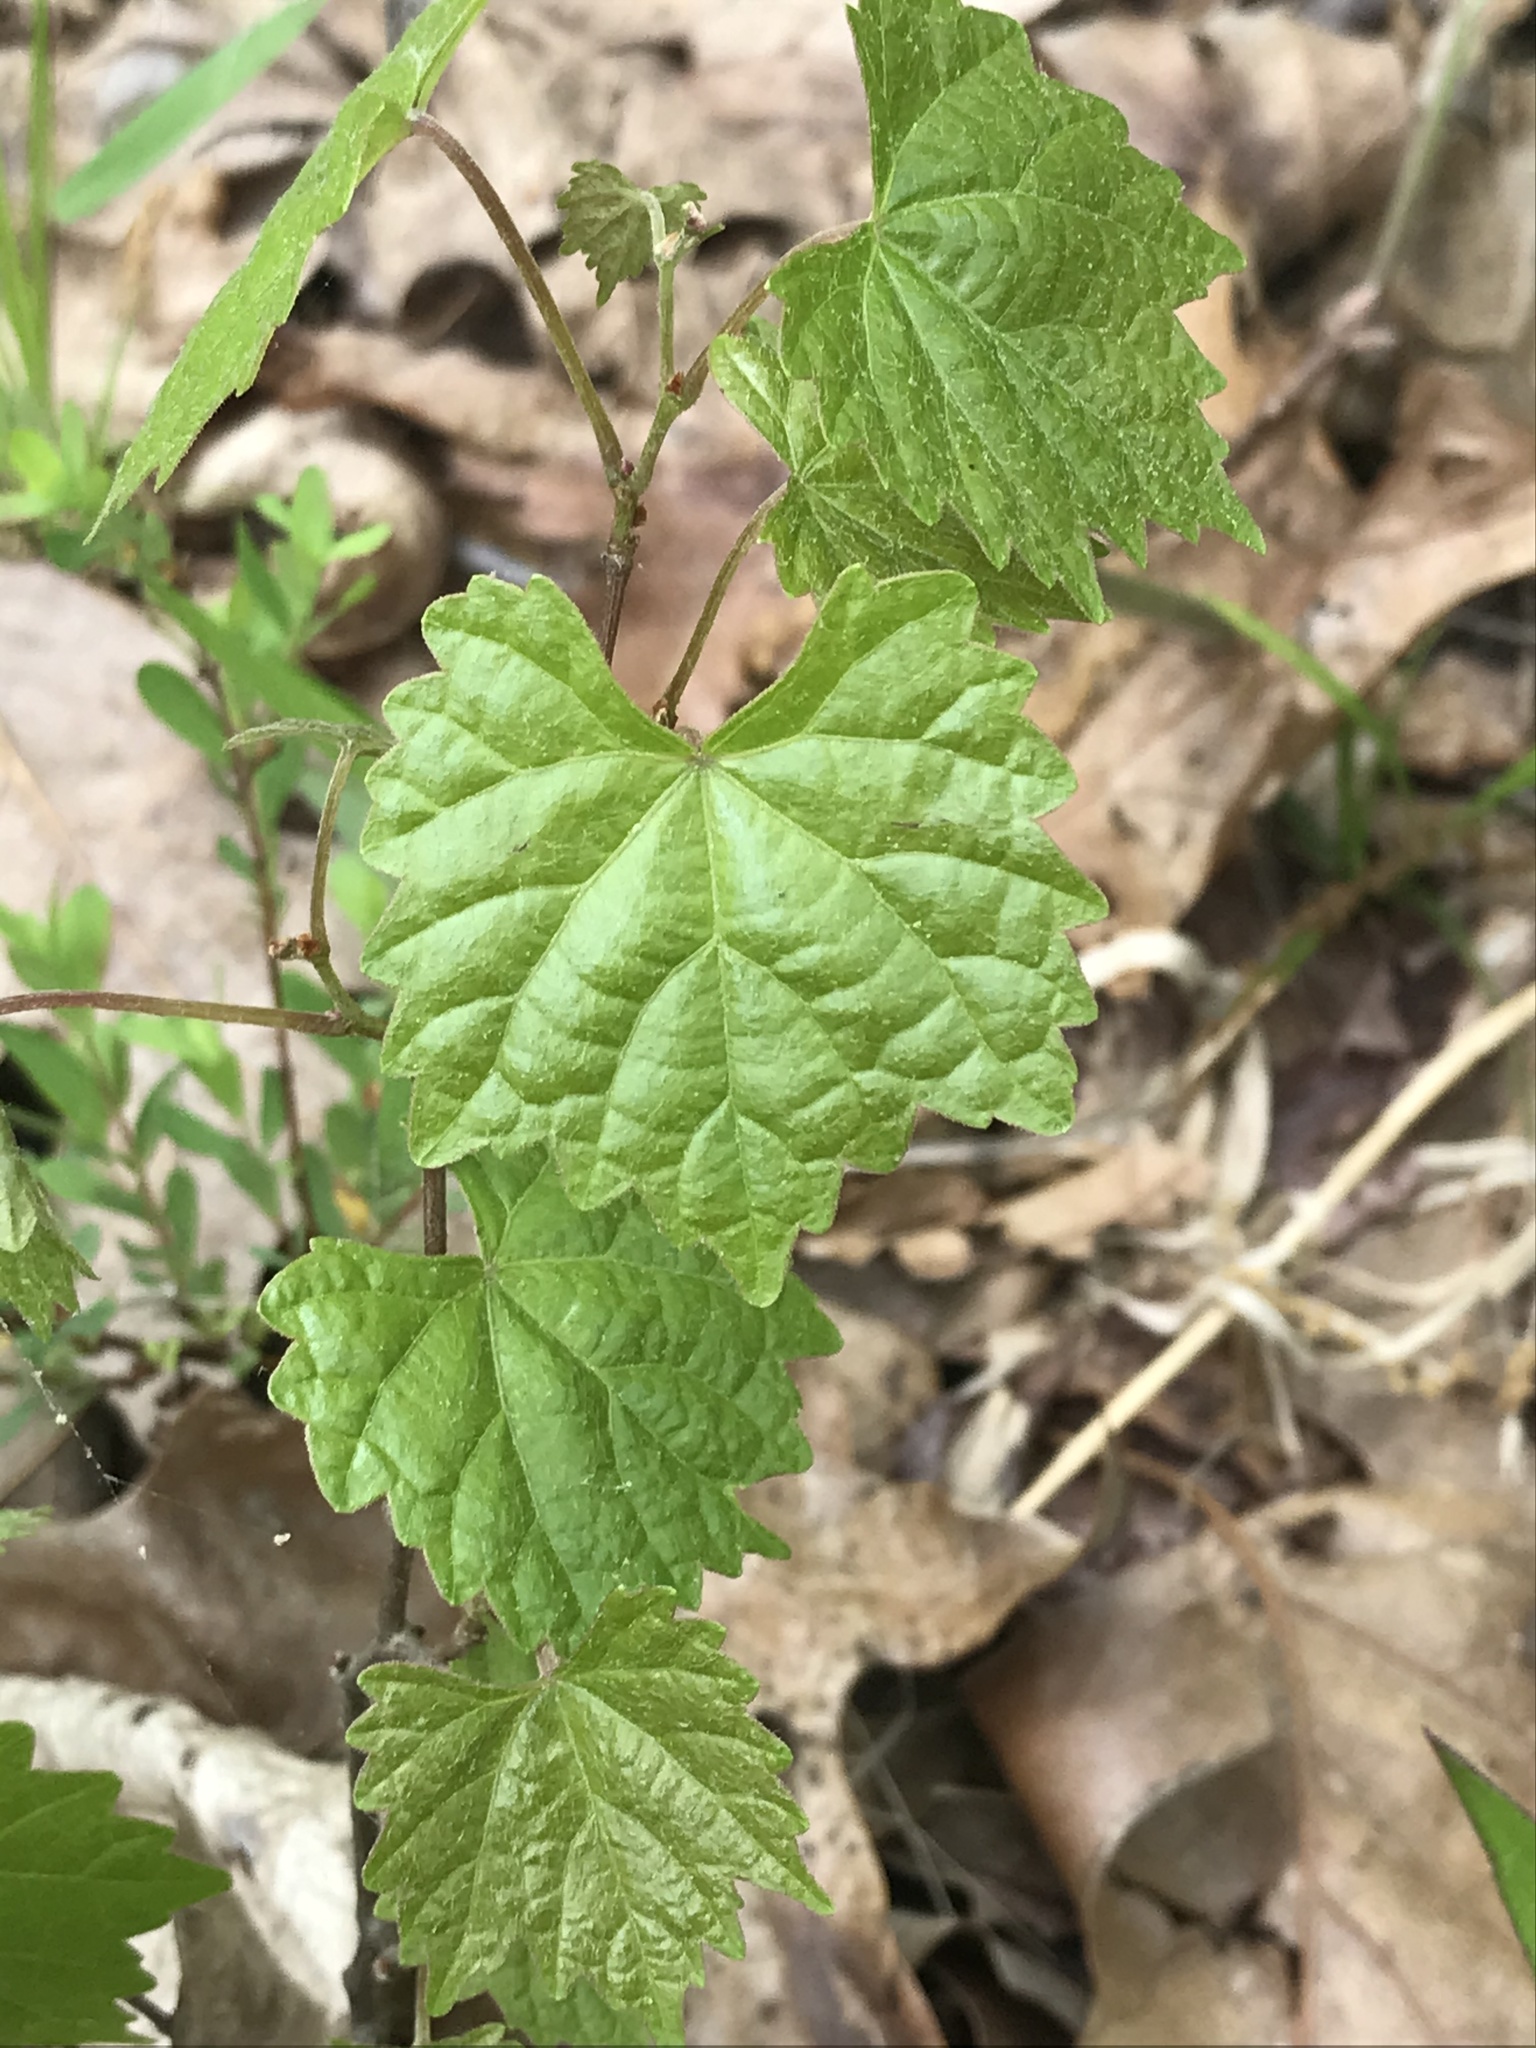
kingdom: Plantae
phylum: Tracheophyta
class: Magnoliopsida
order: Vitales
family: Vitaceae
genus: Vitis
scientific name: Vitis rotundifolia
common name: Muscadine grape
